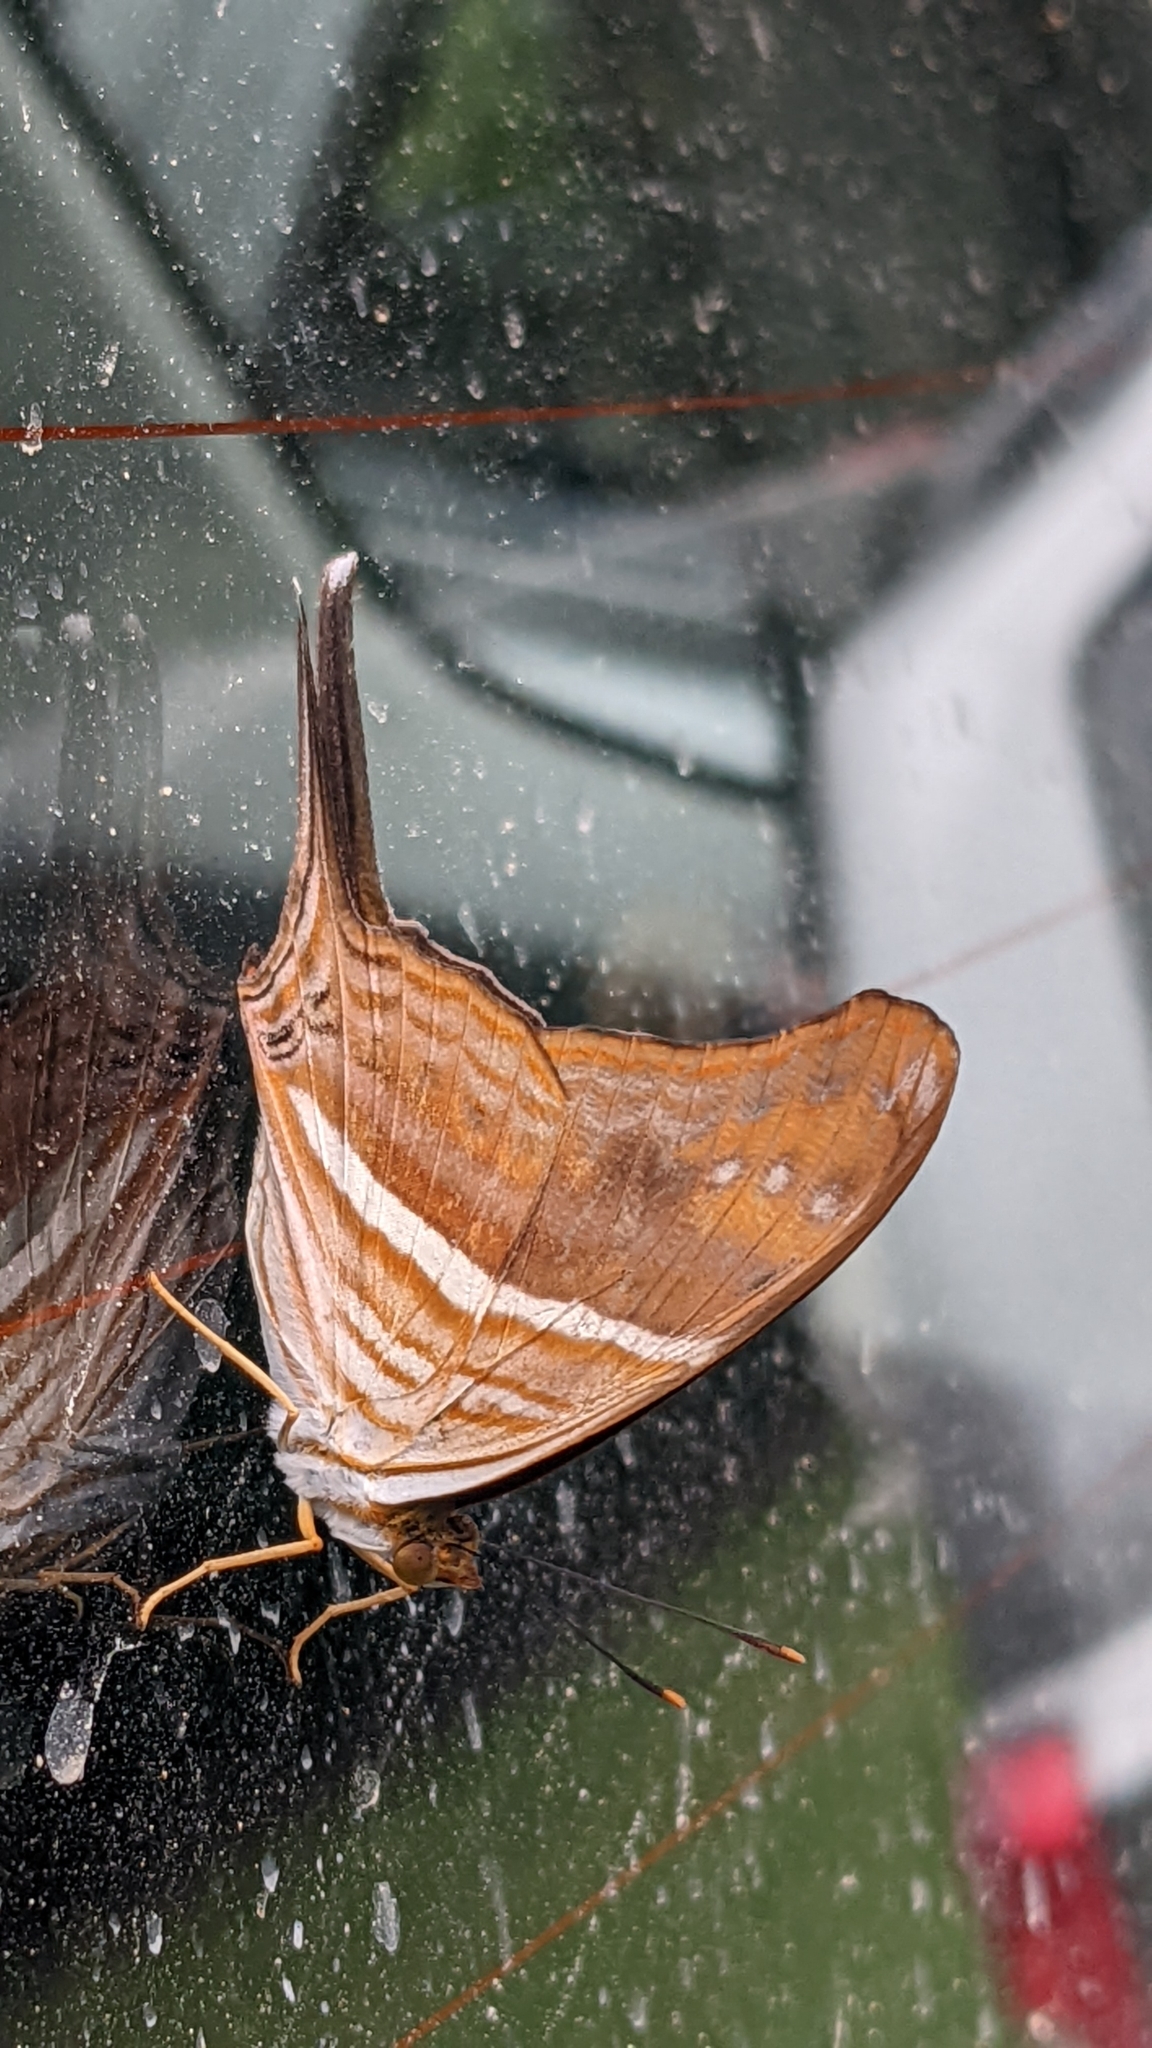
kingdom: Animalia
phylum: Arthropoda
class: Insecta
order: Lepidoptera
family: Nymphalidae
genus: Marpesia
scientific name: Marpesia chiron
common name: Many-banded daggerwing
